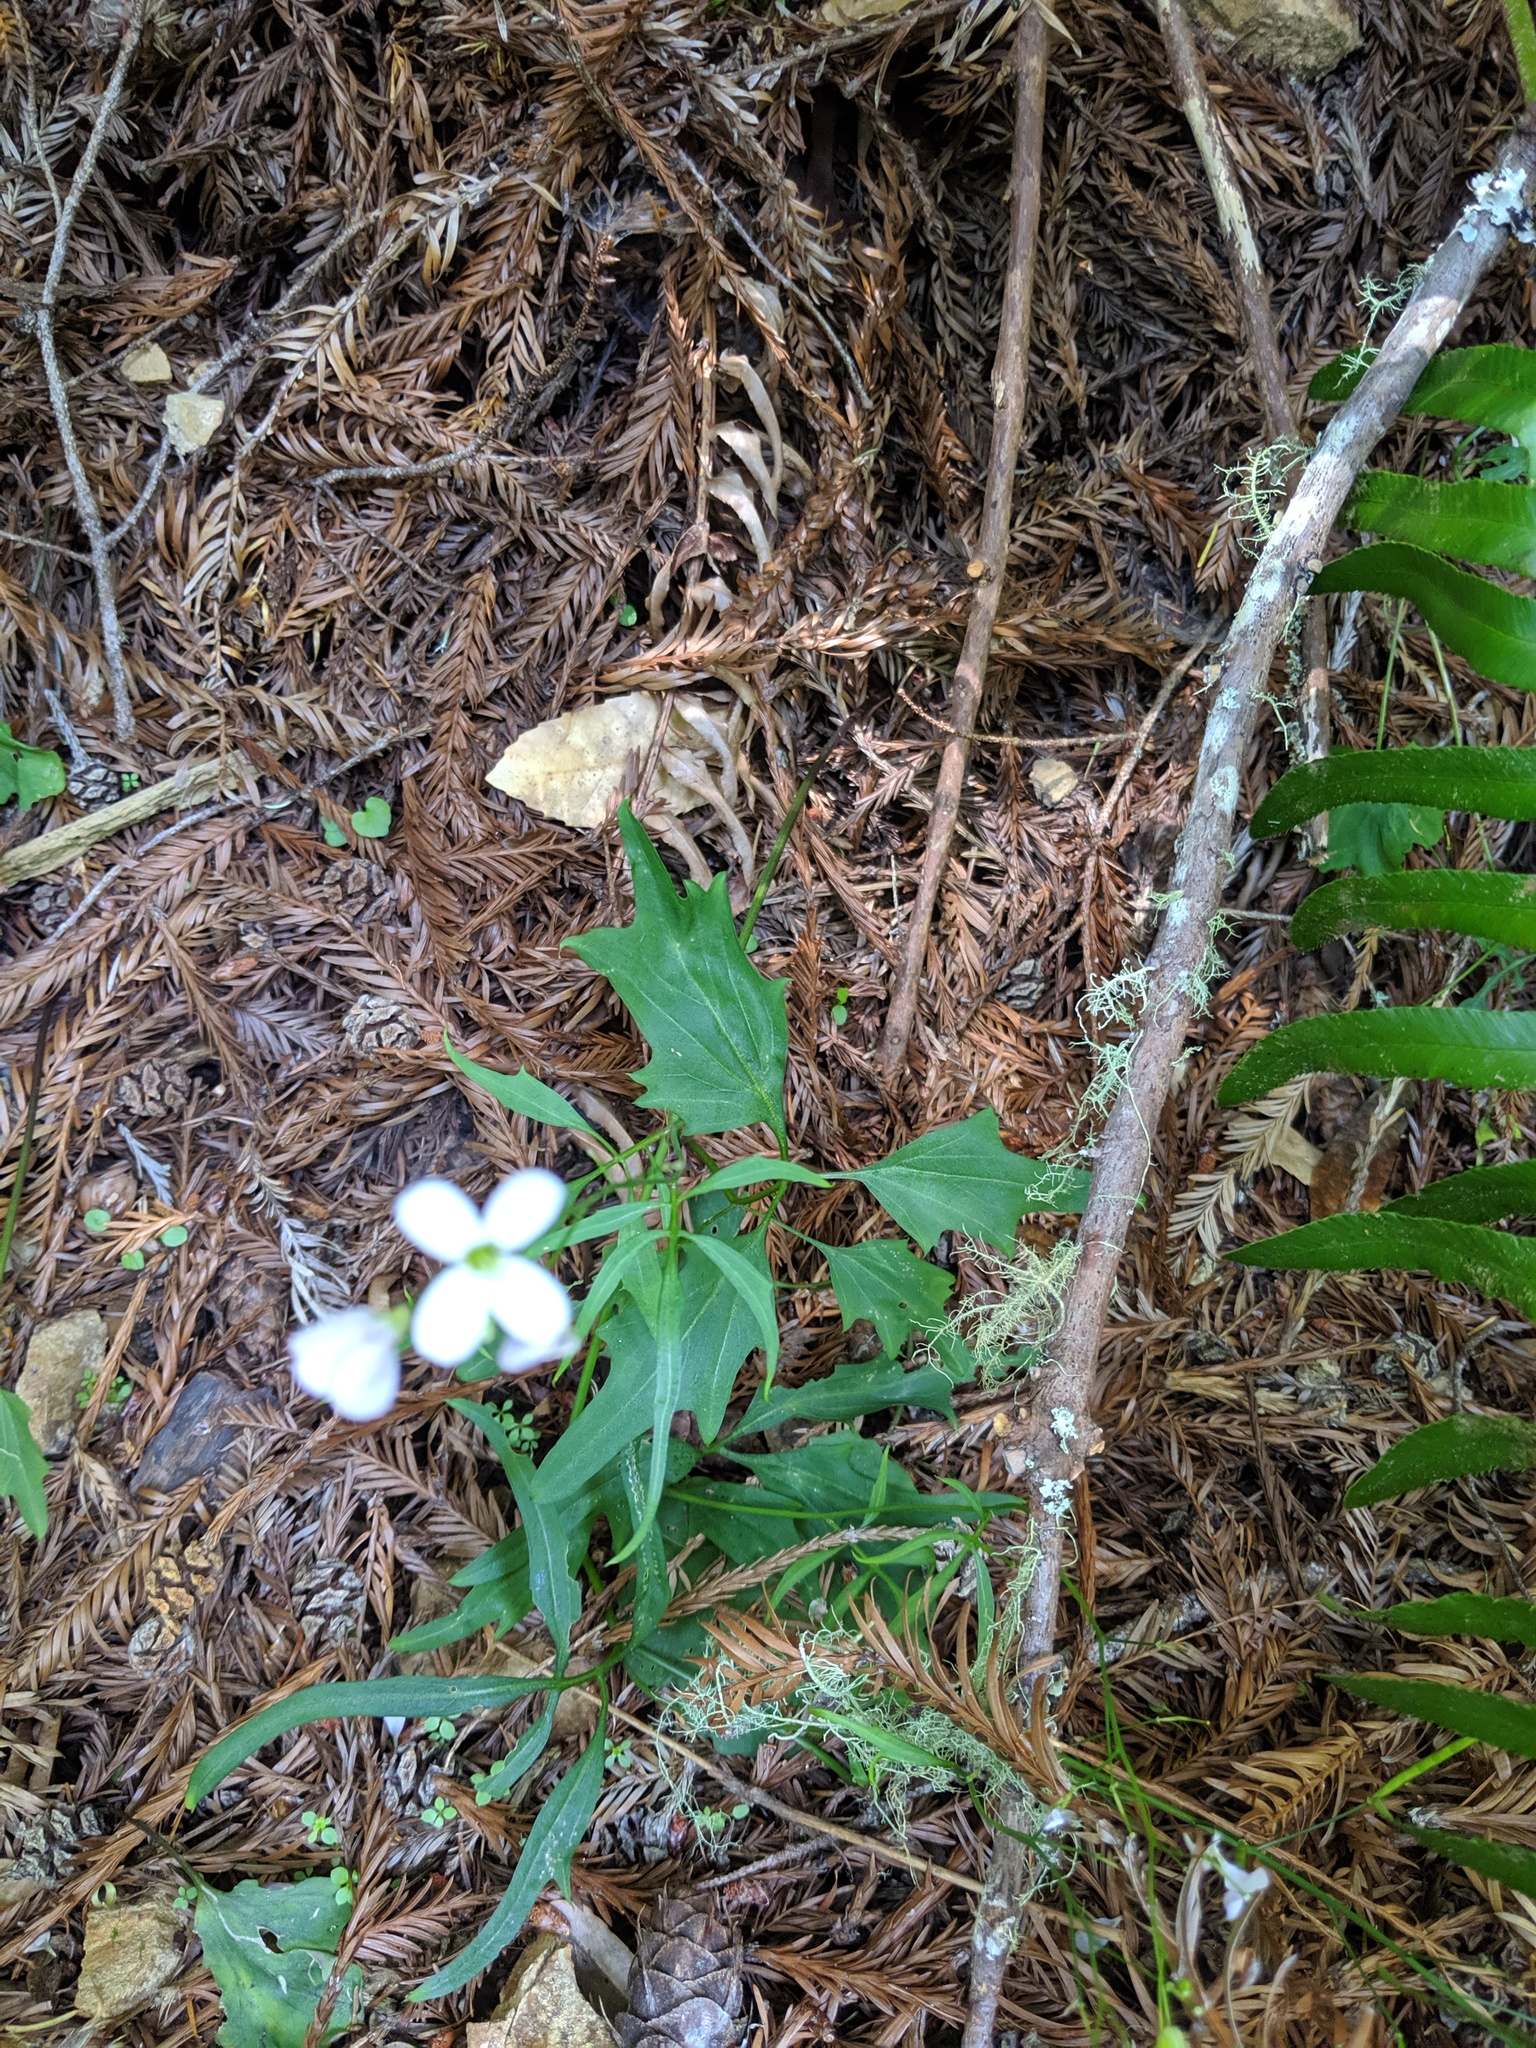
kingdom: Plantae
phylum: Tracheophyta
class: Magnoliopsida
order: Brassicales
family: Brassicaceae
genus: Cardamine
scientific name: Cardamine californica
